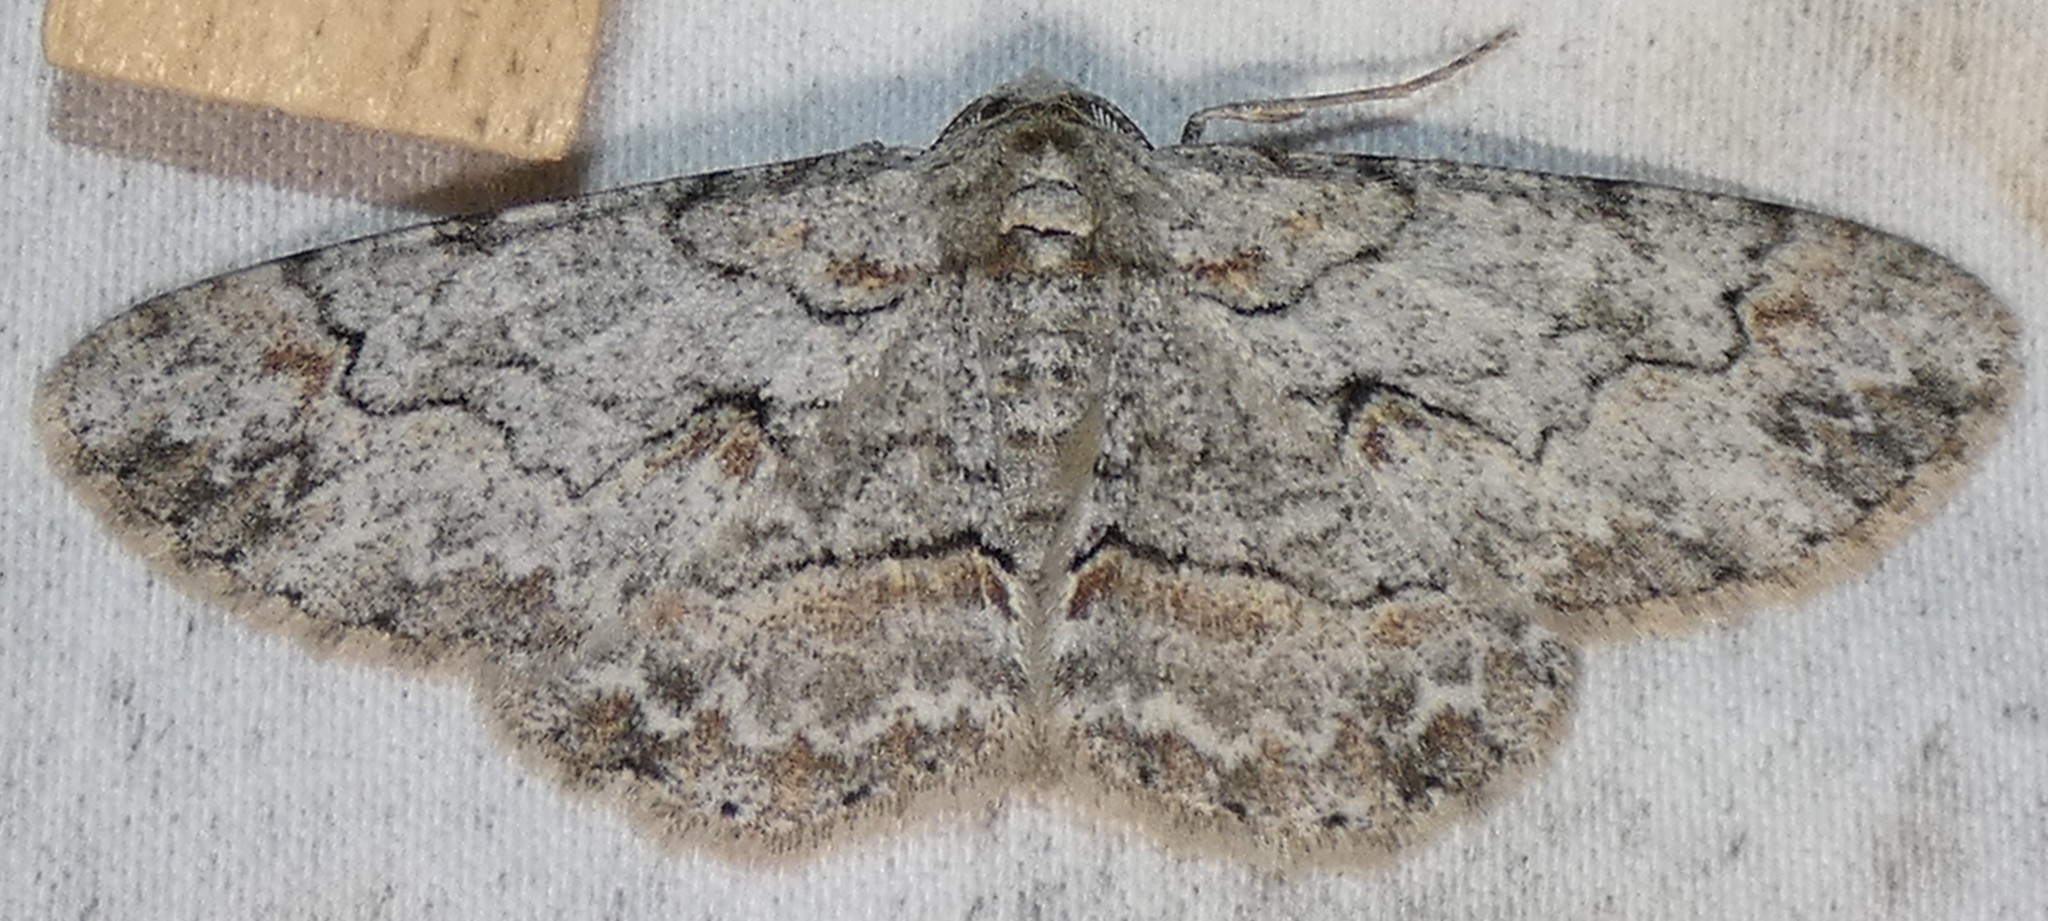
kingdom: Animalia
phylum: Arthropoda
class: Insecta
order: Lepidoptera
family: Geometridae
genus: Iridopsis
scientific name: Iridopsis defectaria
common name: Brown-shaded gray
